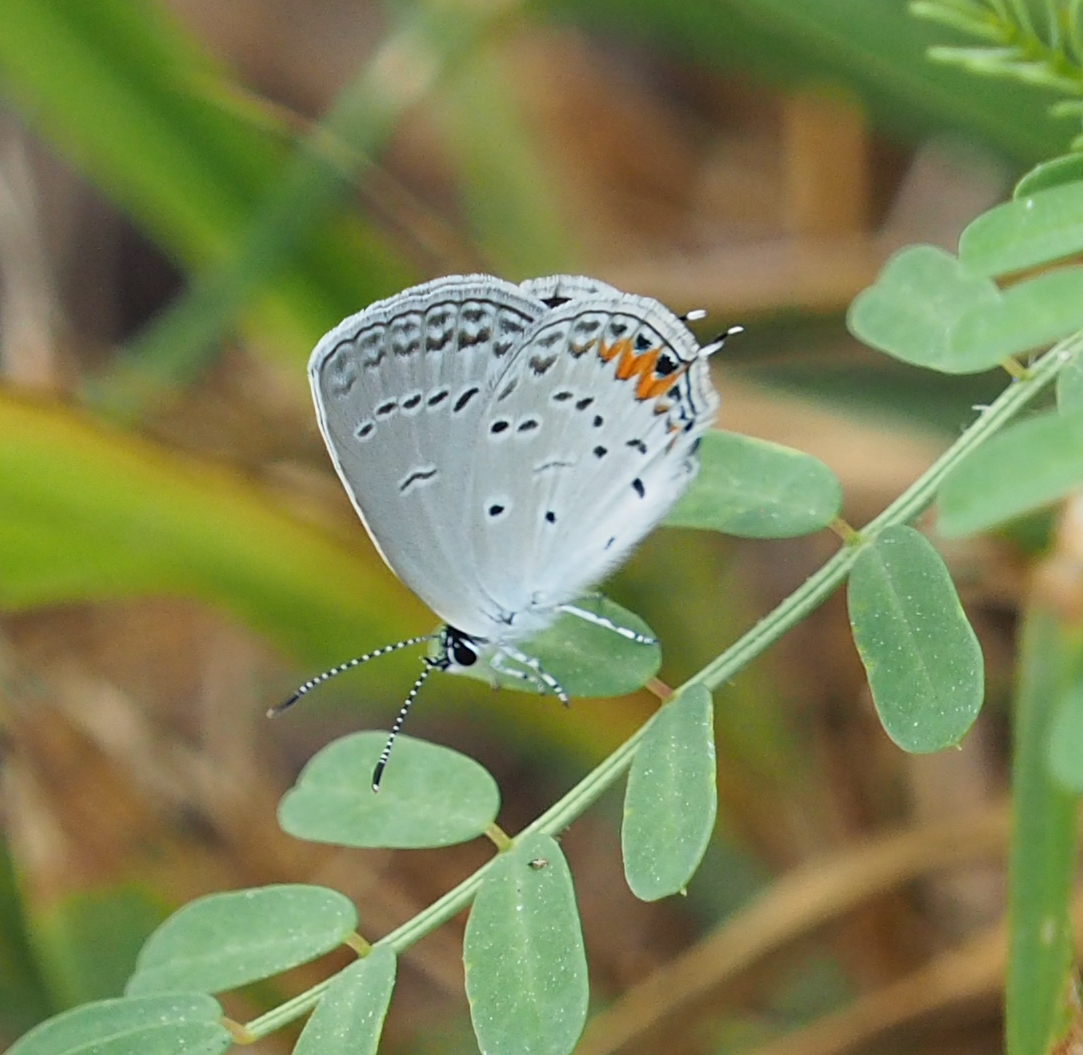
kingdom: Animalia
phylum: Arthropoda
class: Insecta
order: Lepidoptera
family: Lycaenidae
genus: Elkalyce
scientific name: Elkalyce comyntas
